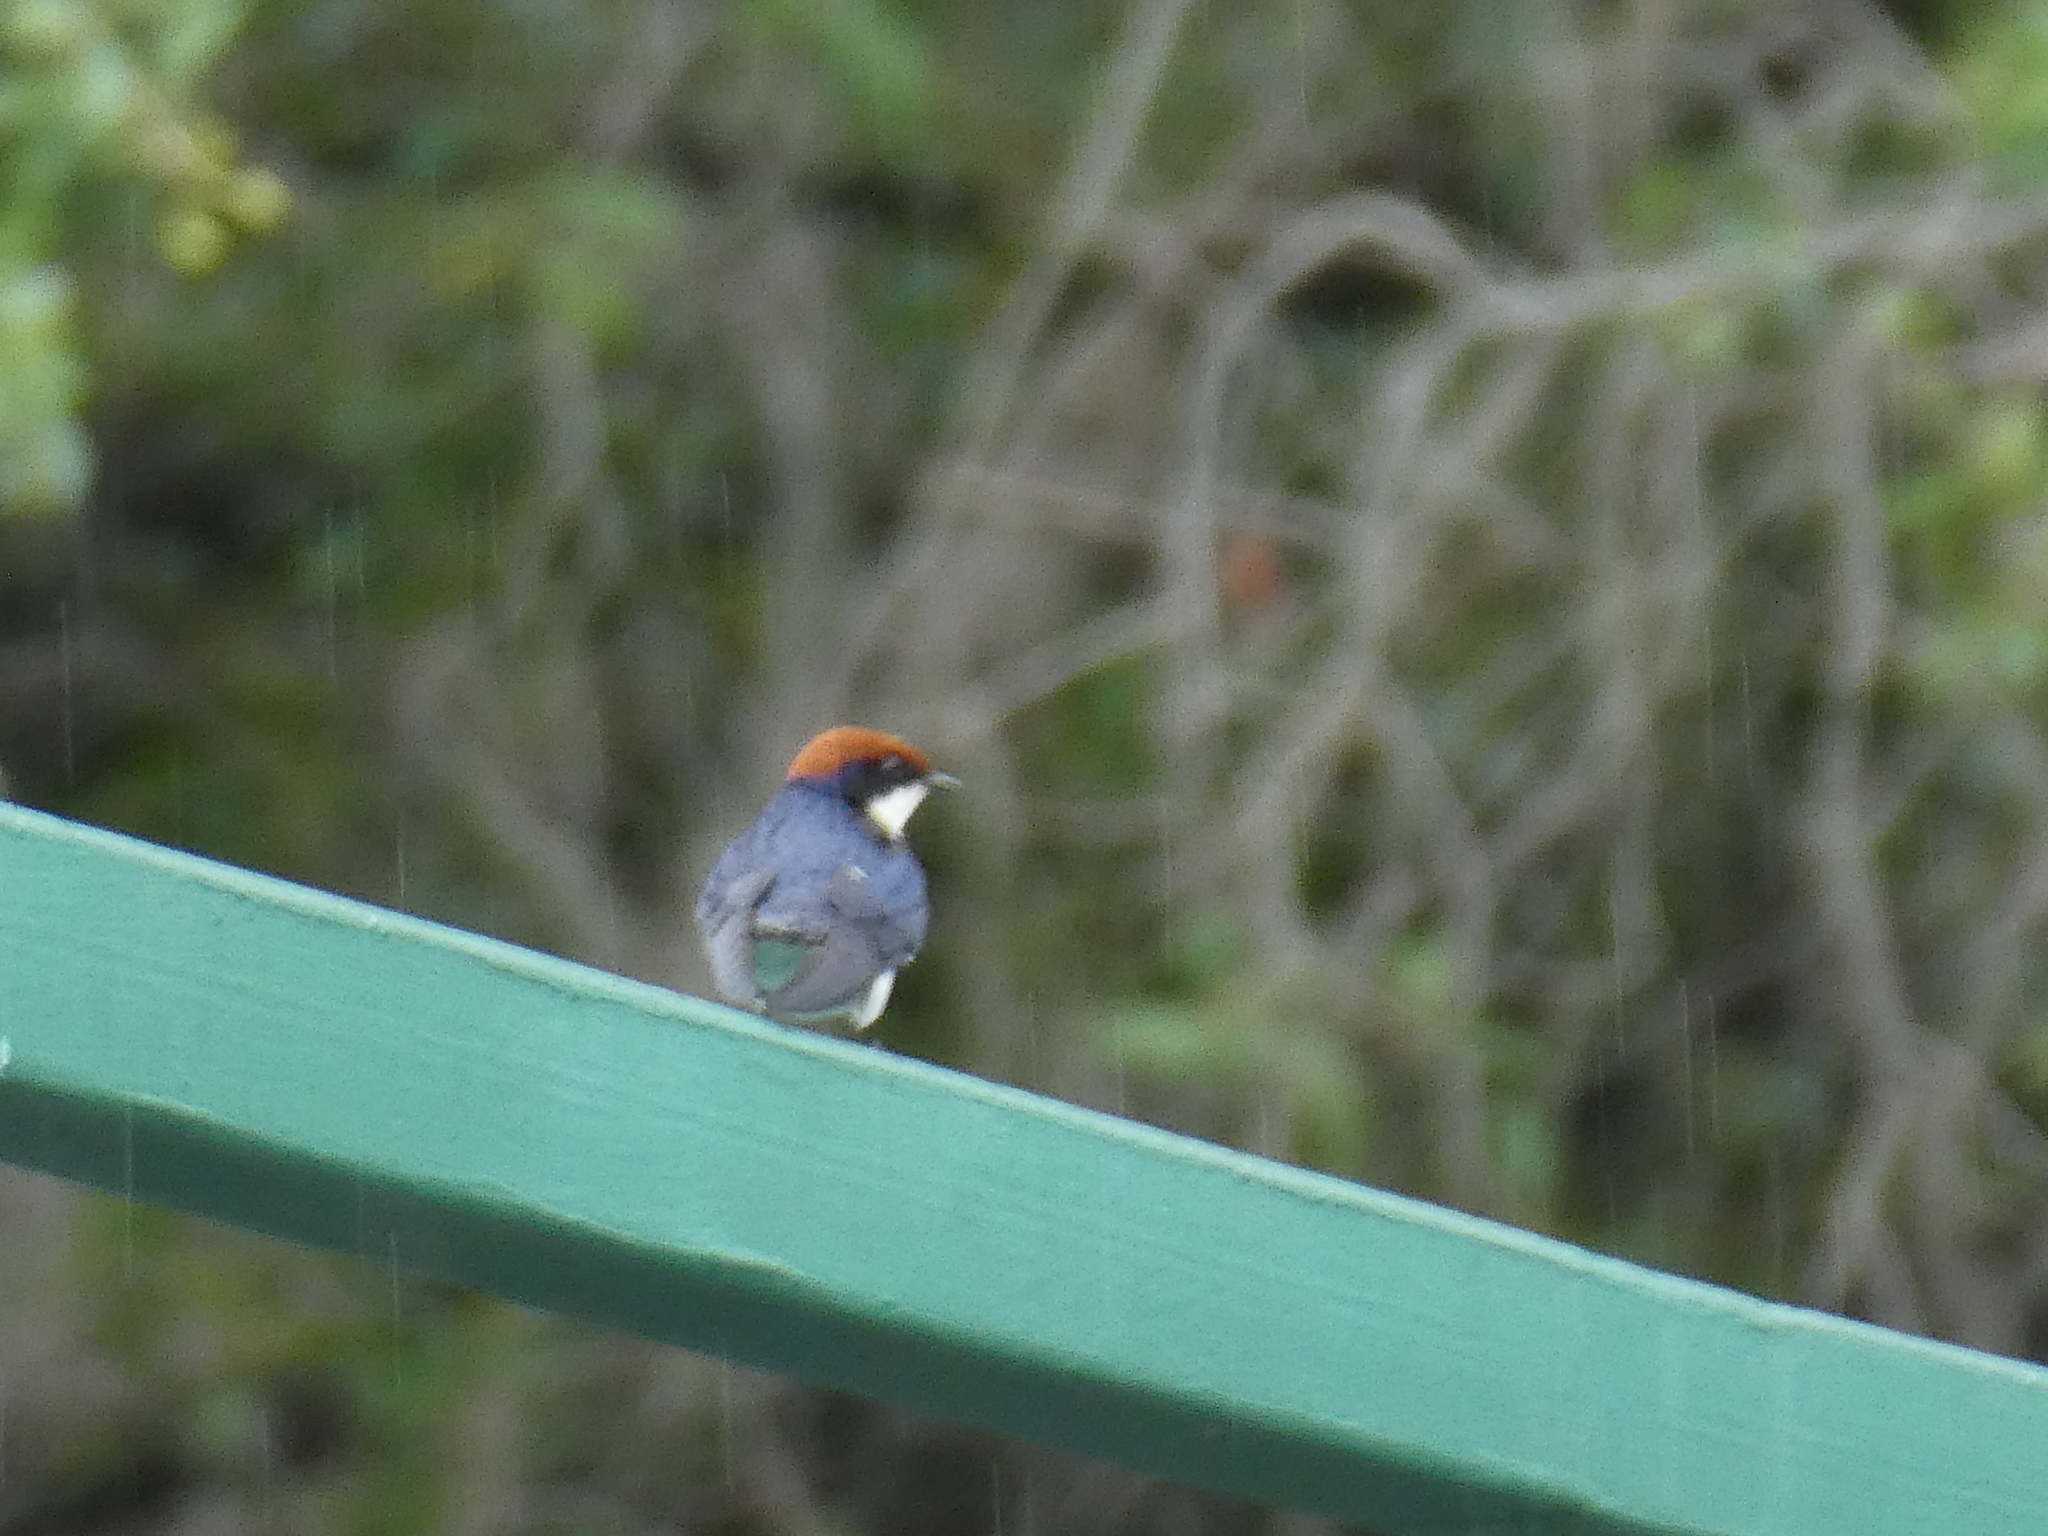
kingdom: Animalia
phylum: Chordata
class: Aves
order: Passeriformes
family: Hirundinidae
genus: Hirundo
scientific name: Hirundo smithii
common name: Wire-tailed swallow
